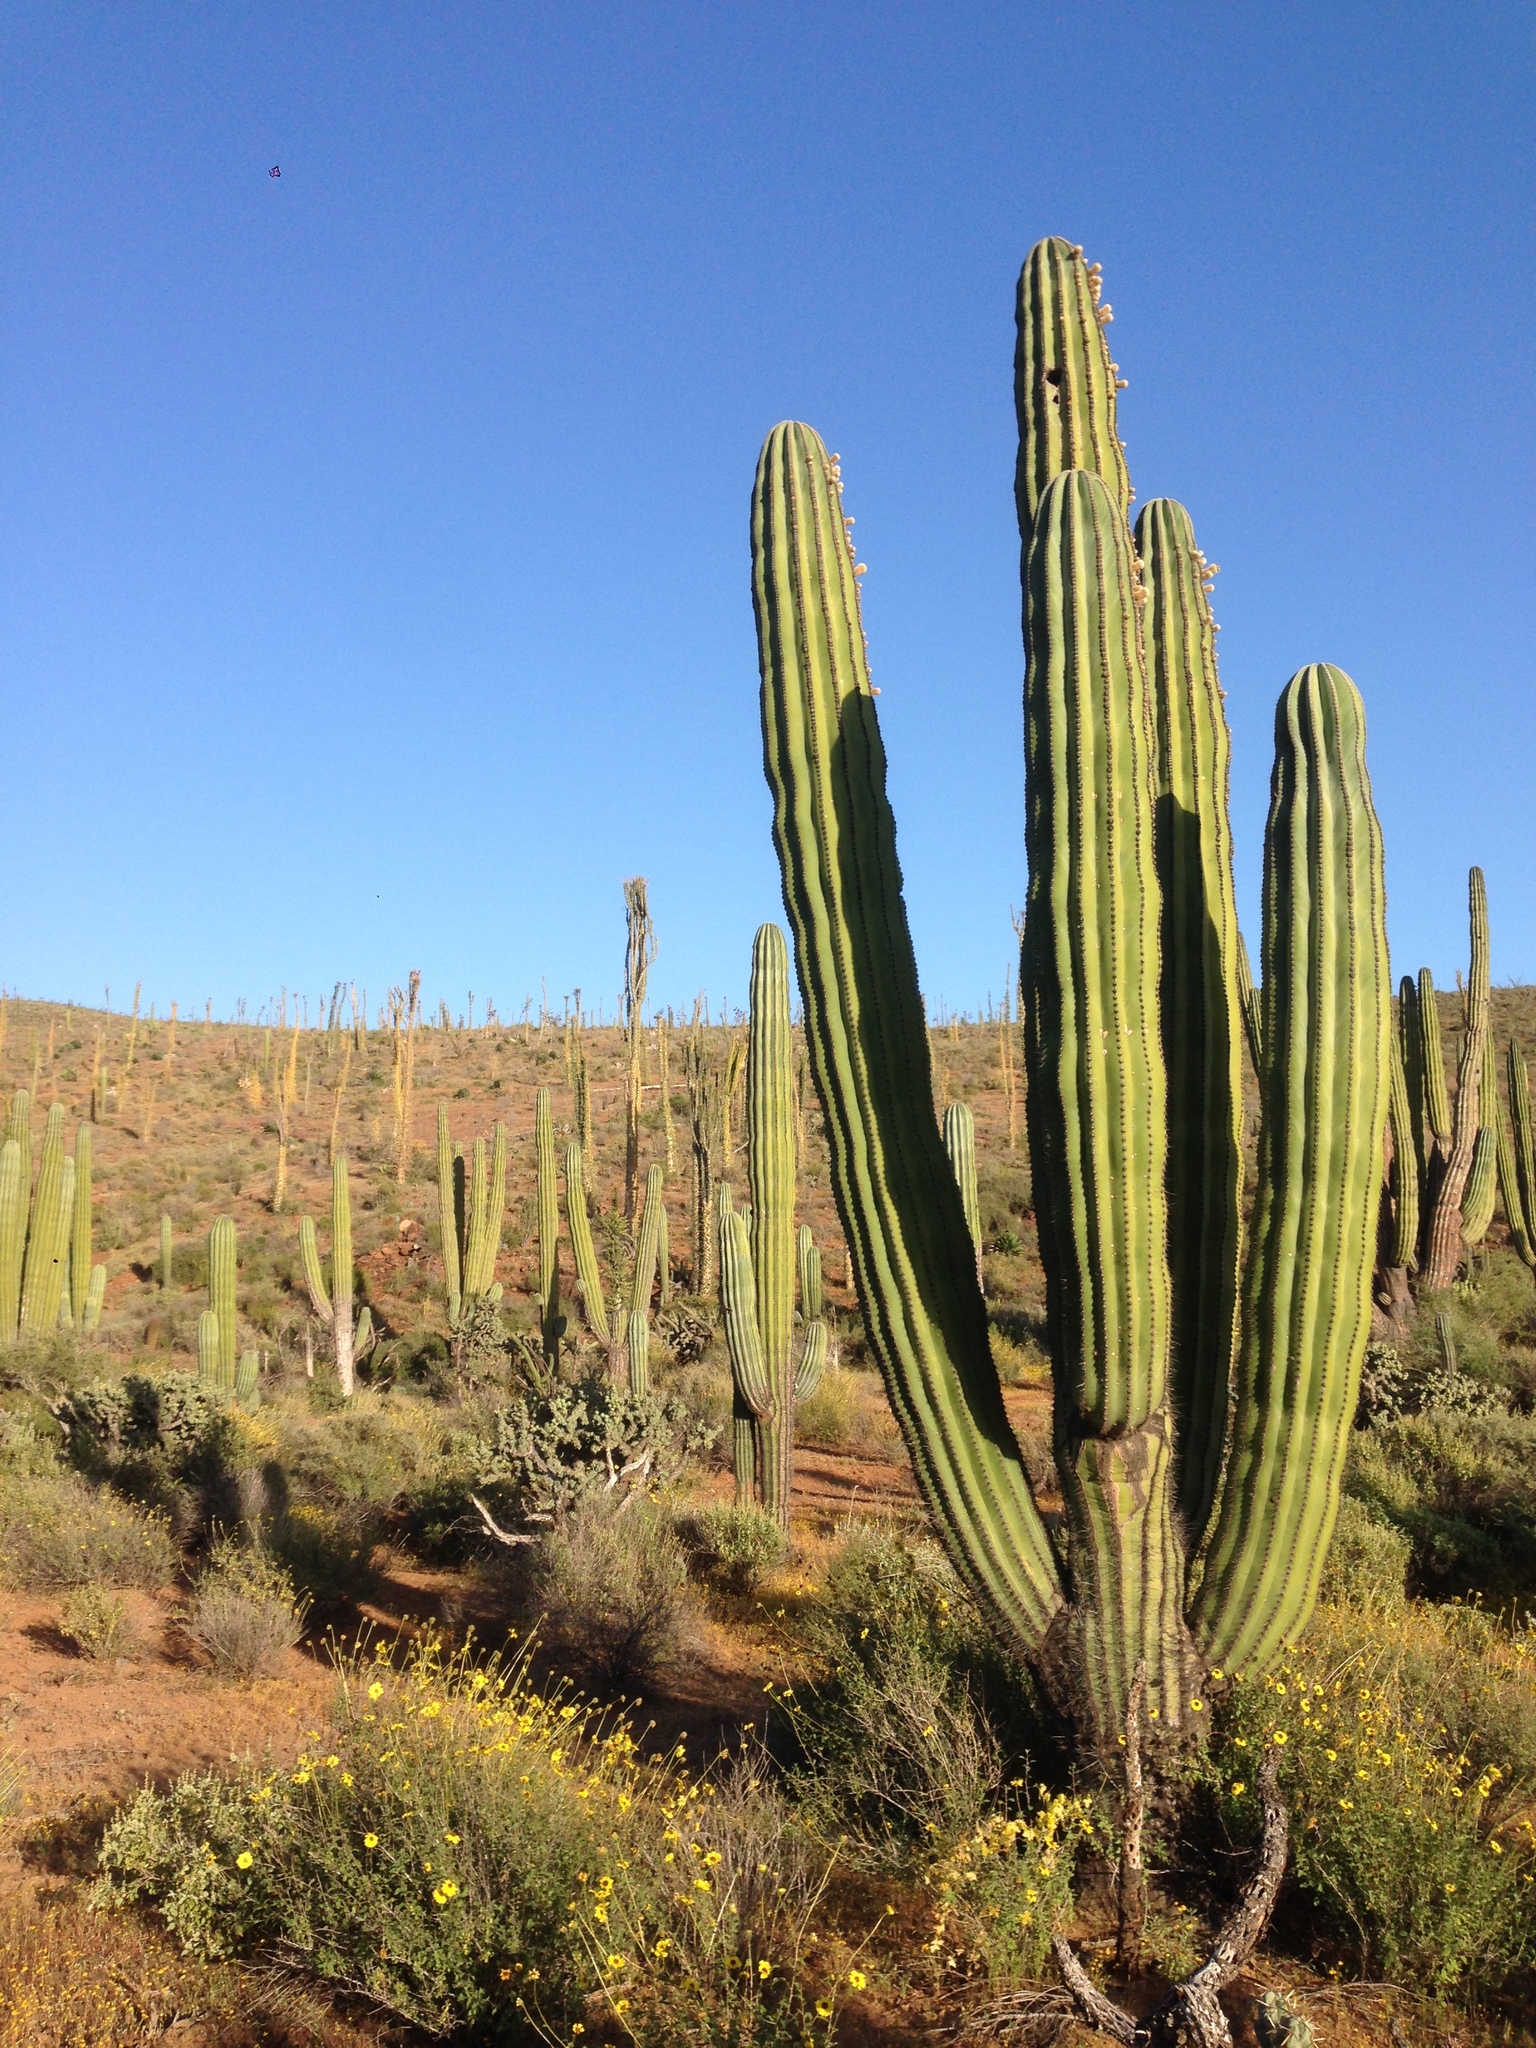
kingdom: Plantae
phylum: Tracheophyta
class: Magnoliopsida
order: Caryophyllales
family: Cactaceae
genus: Pachycereus
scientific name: Pachycereus pringlei
